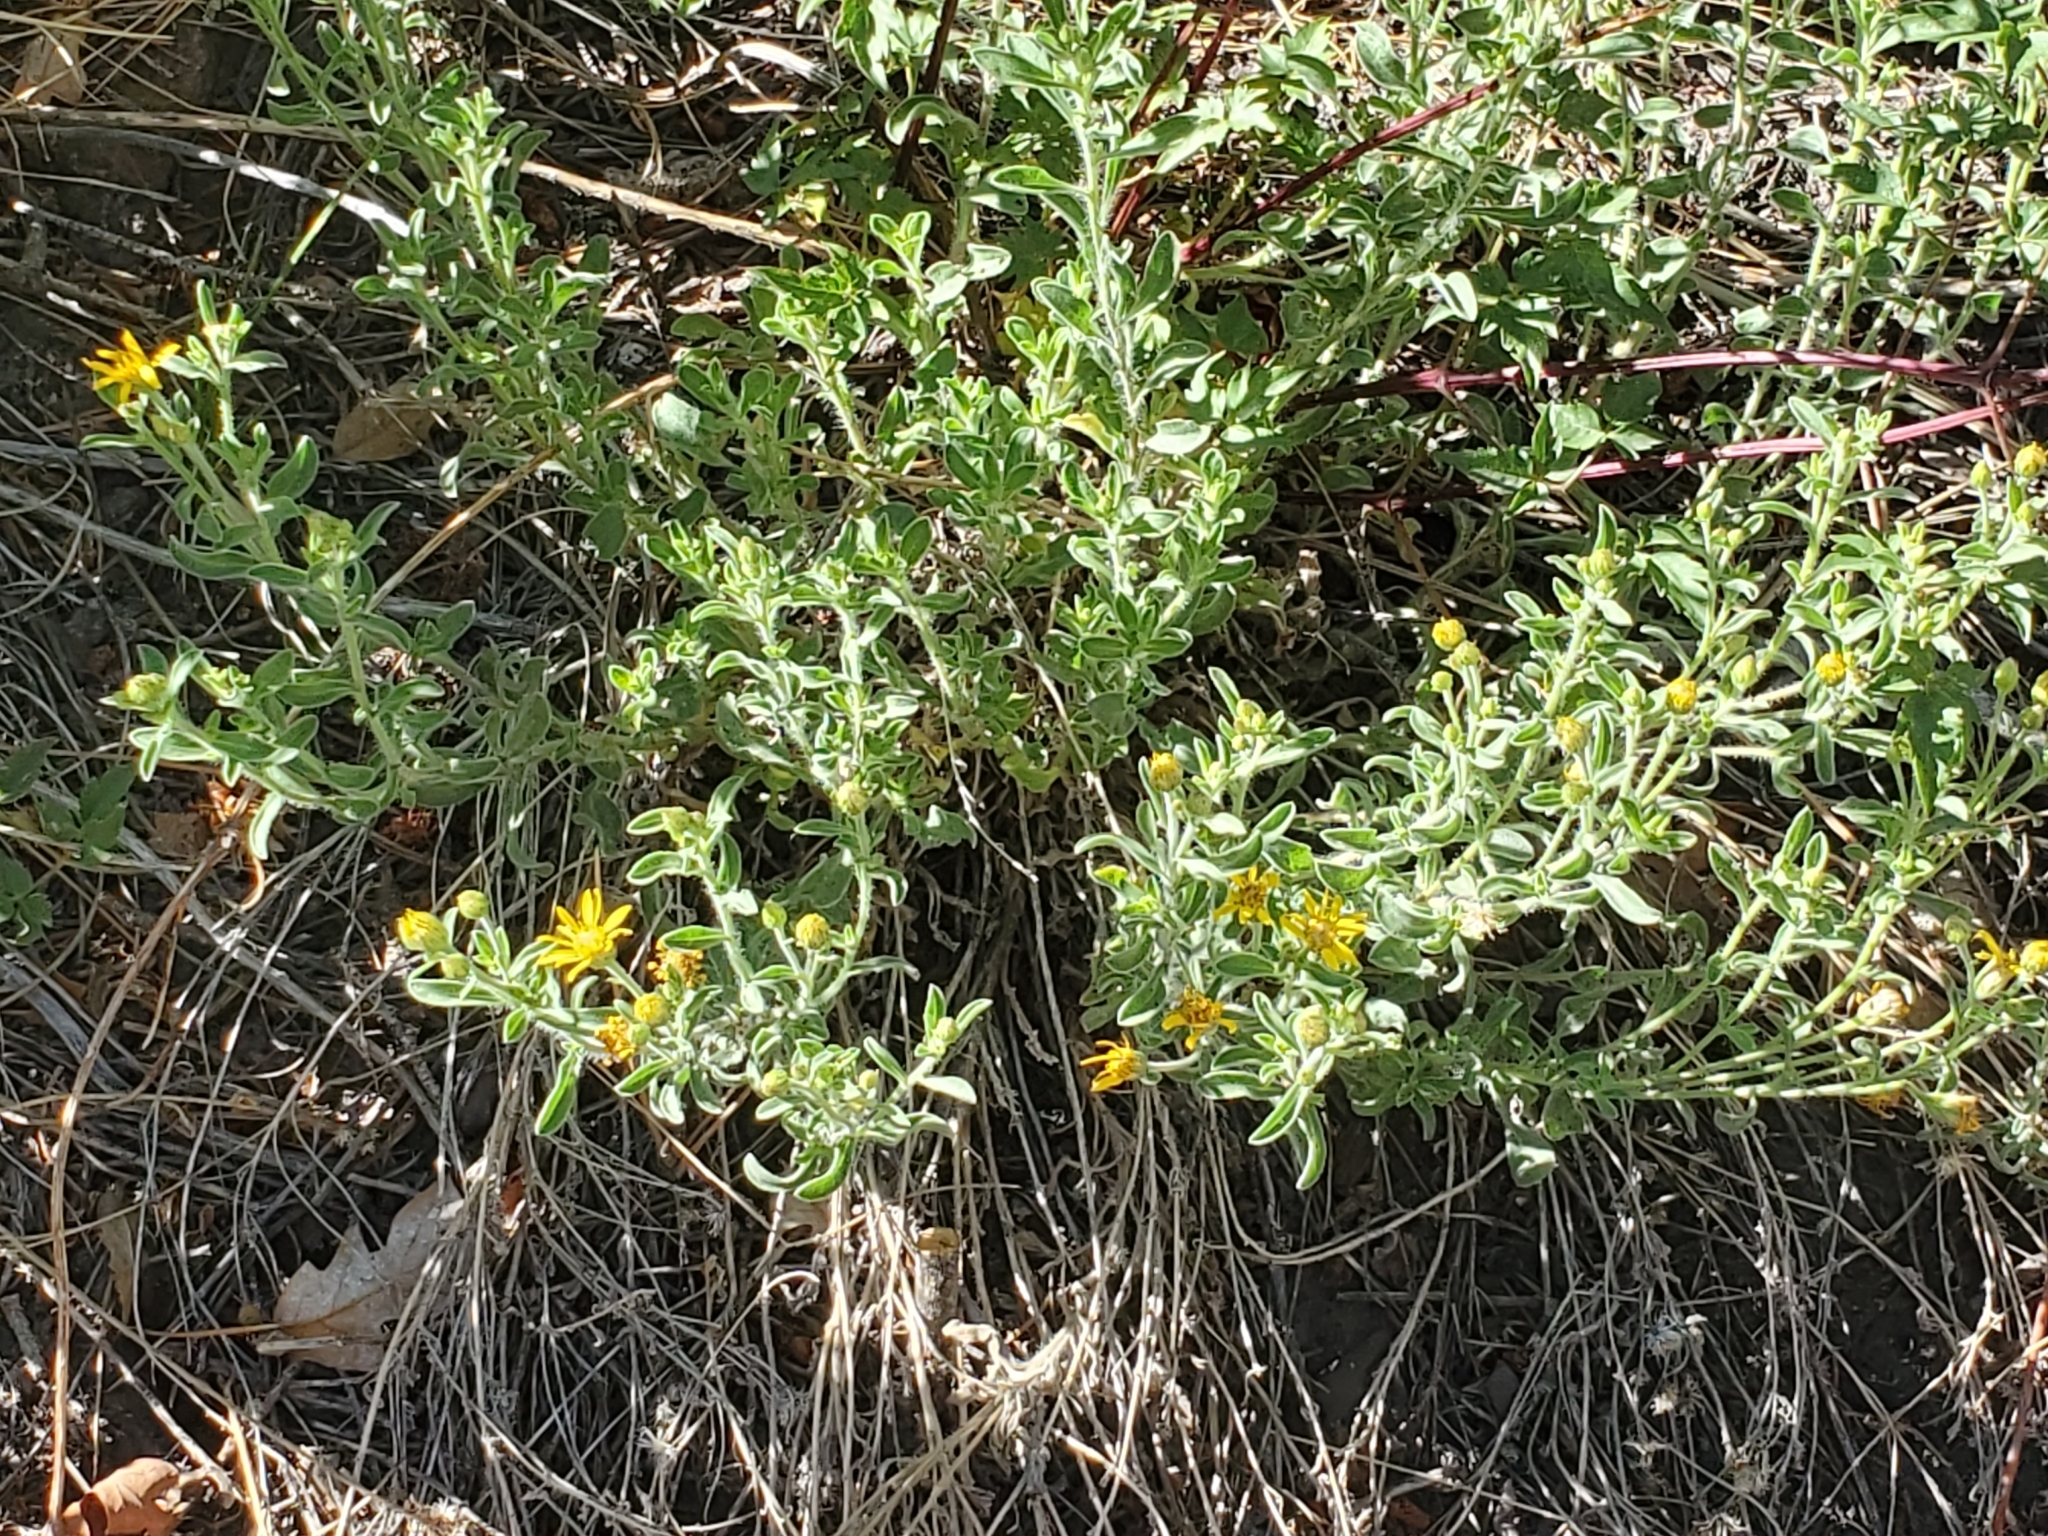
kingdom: Plantae
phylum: Tracheophyta
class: Magnoliopsida
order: Asterales
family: Asteraceae
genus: Heterotheca
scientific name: Heterotheca hirsutissima
